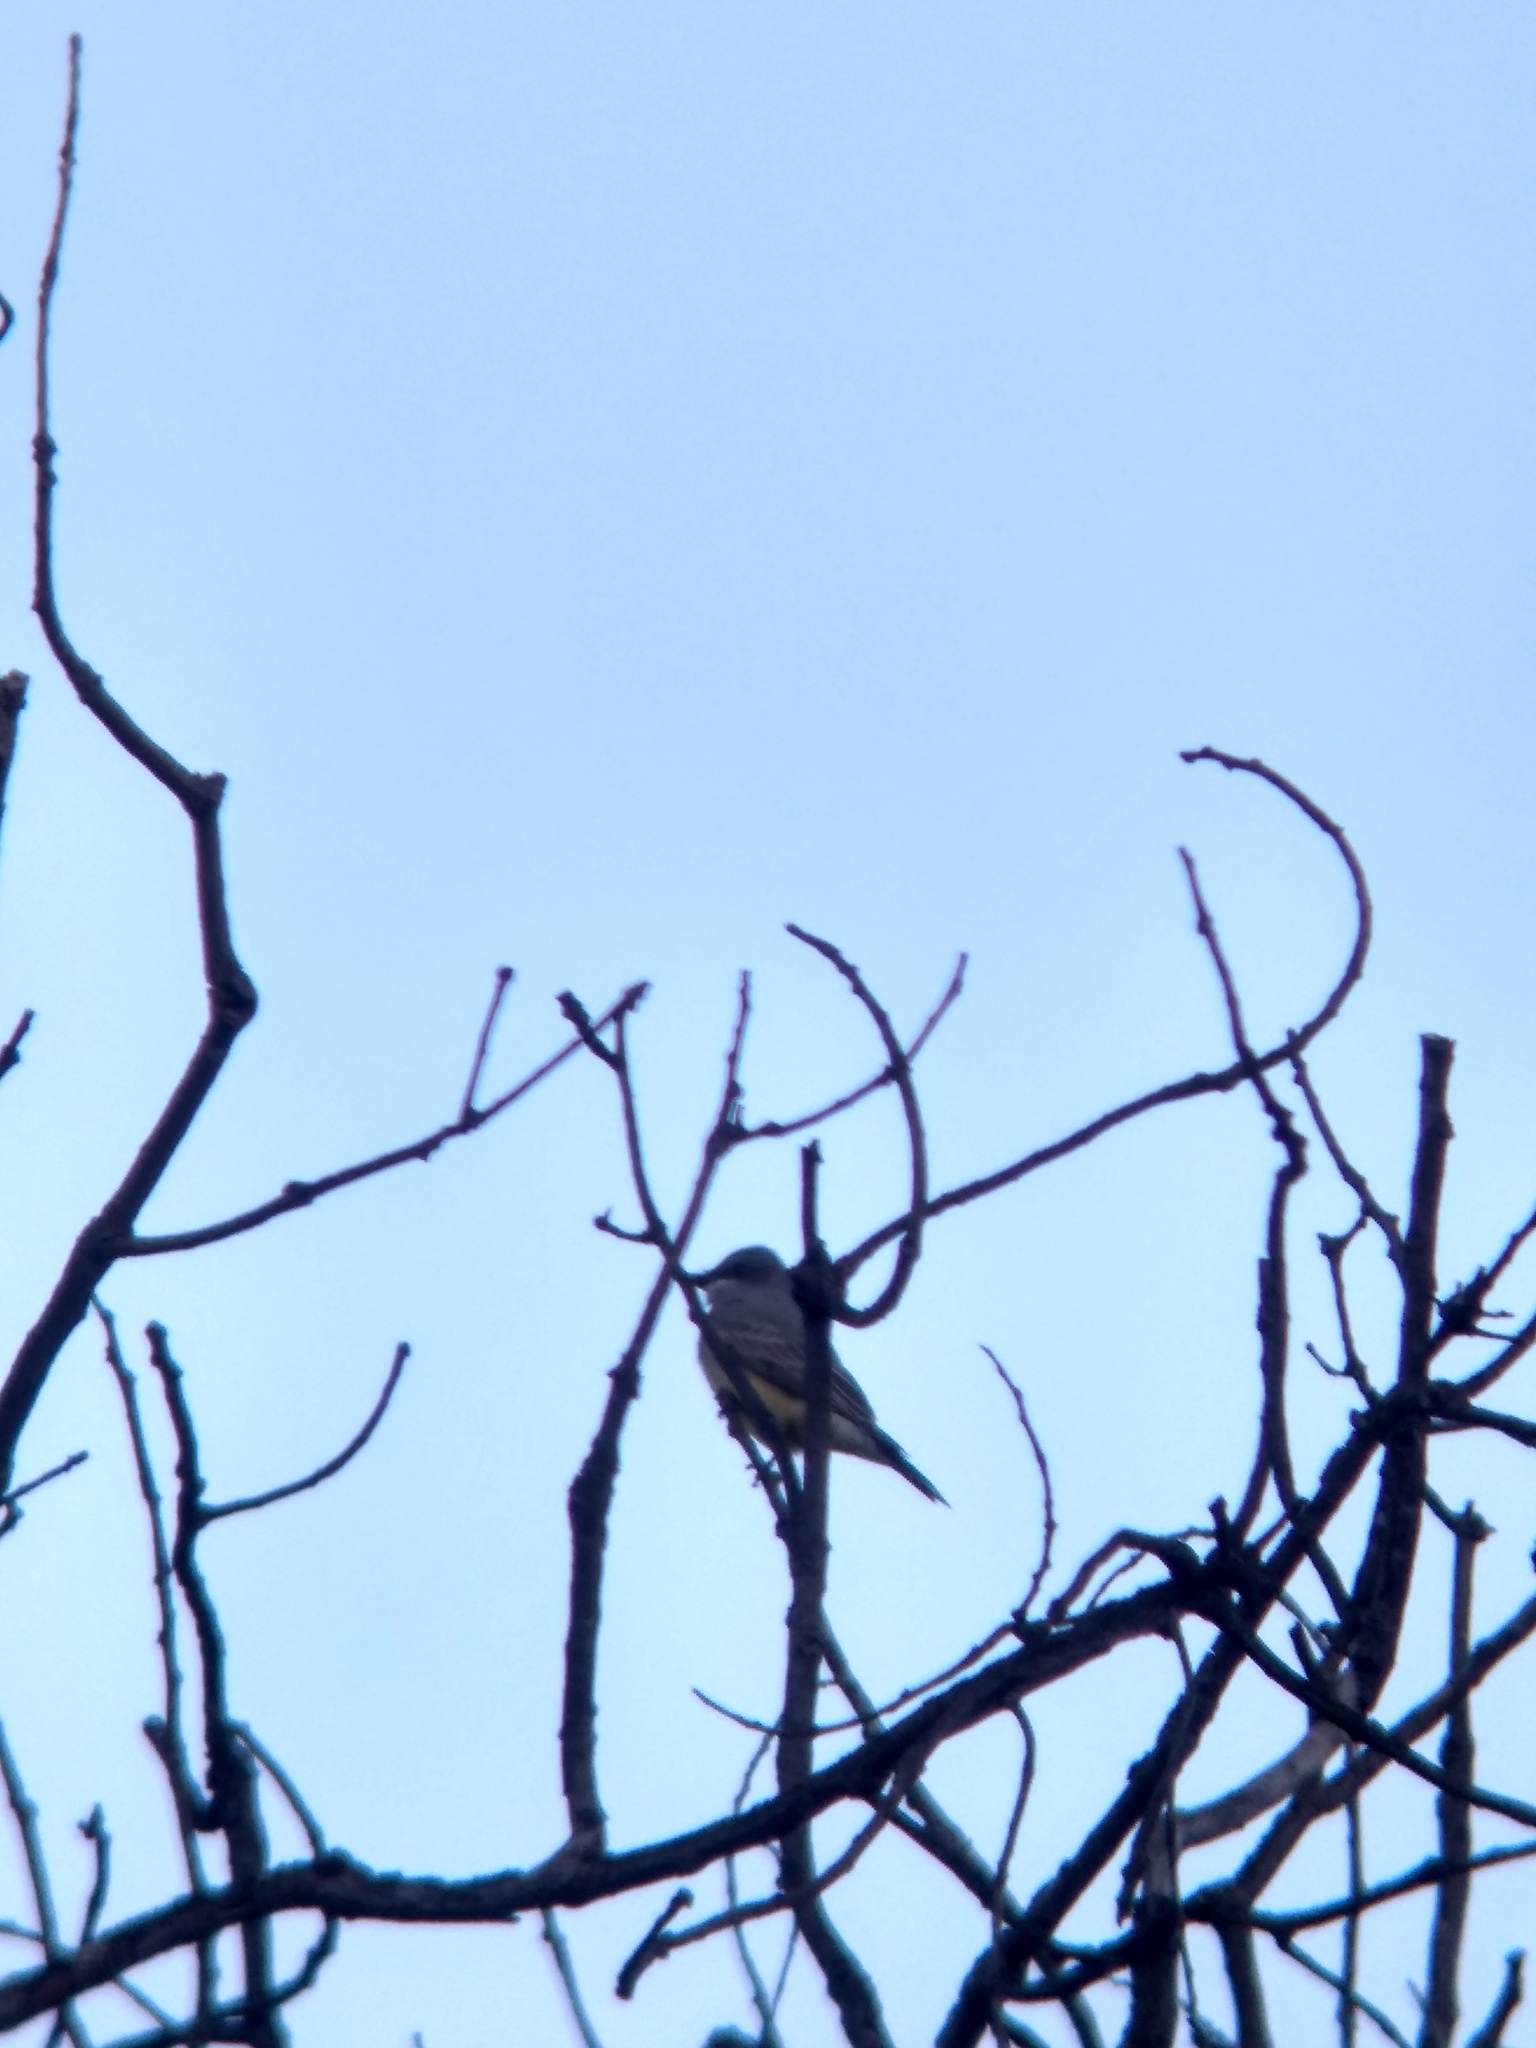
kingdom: Animalia
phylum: Chordata
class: Aves
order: Passeriformes
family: Tyrannidae
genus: Tyrannus
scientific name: Tyrannus vociferans
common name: Cassin's kingbird
